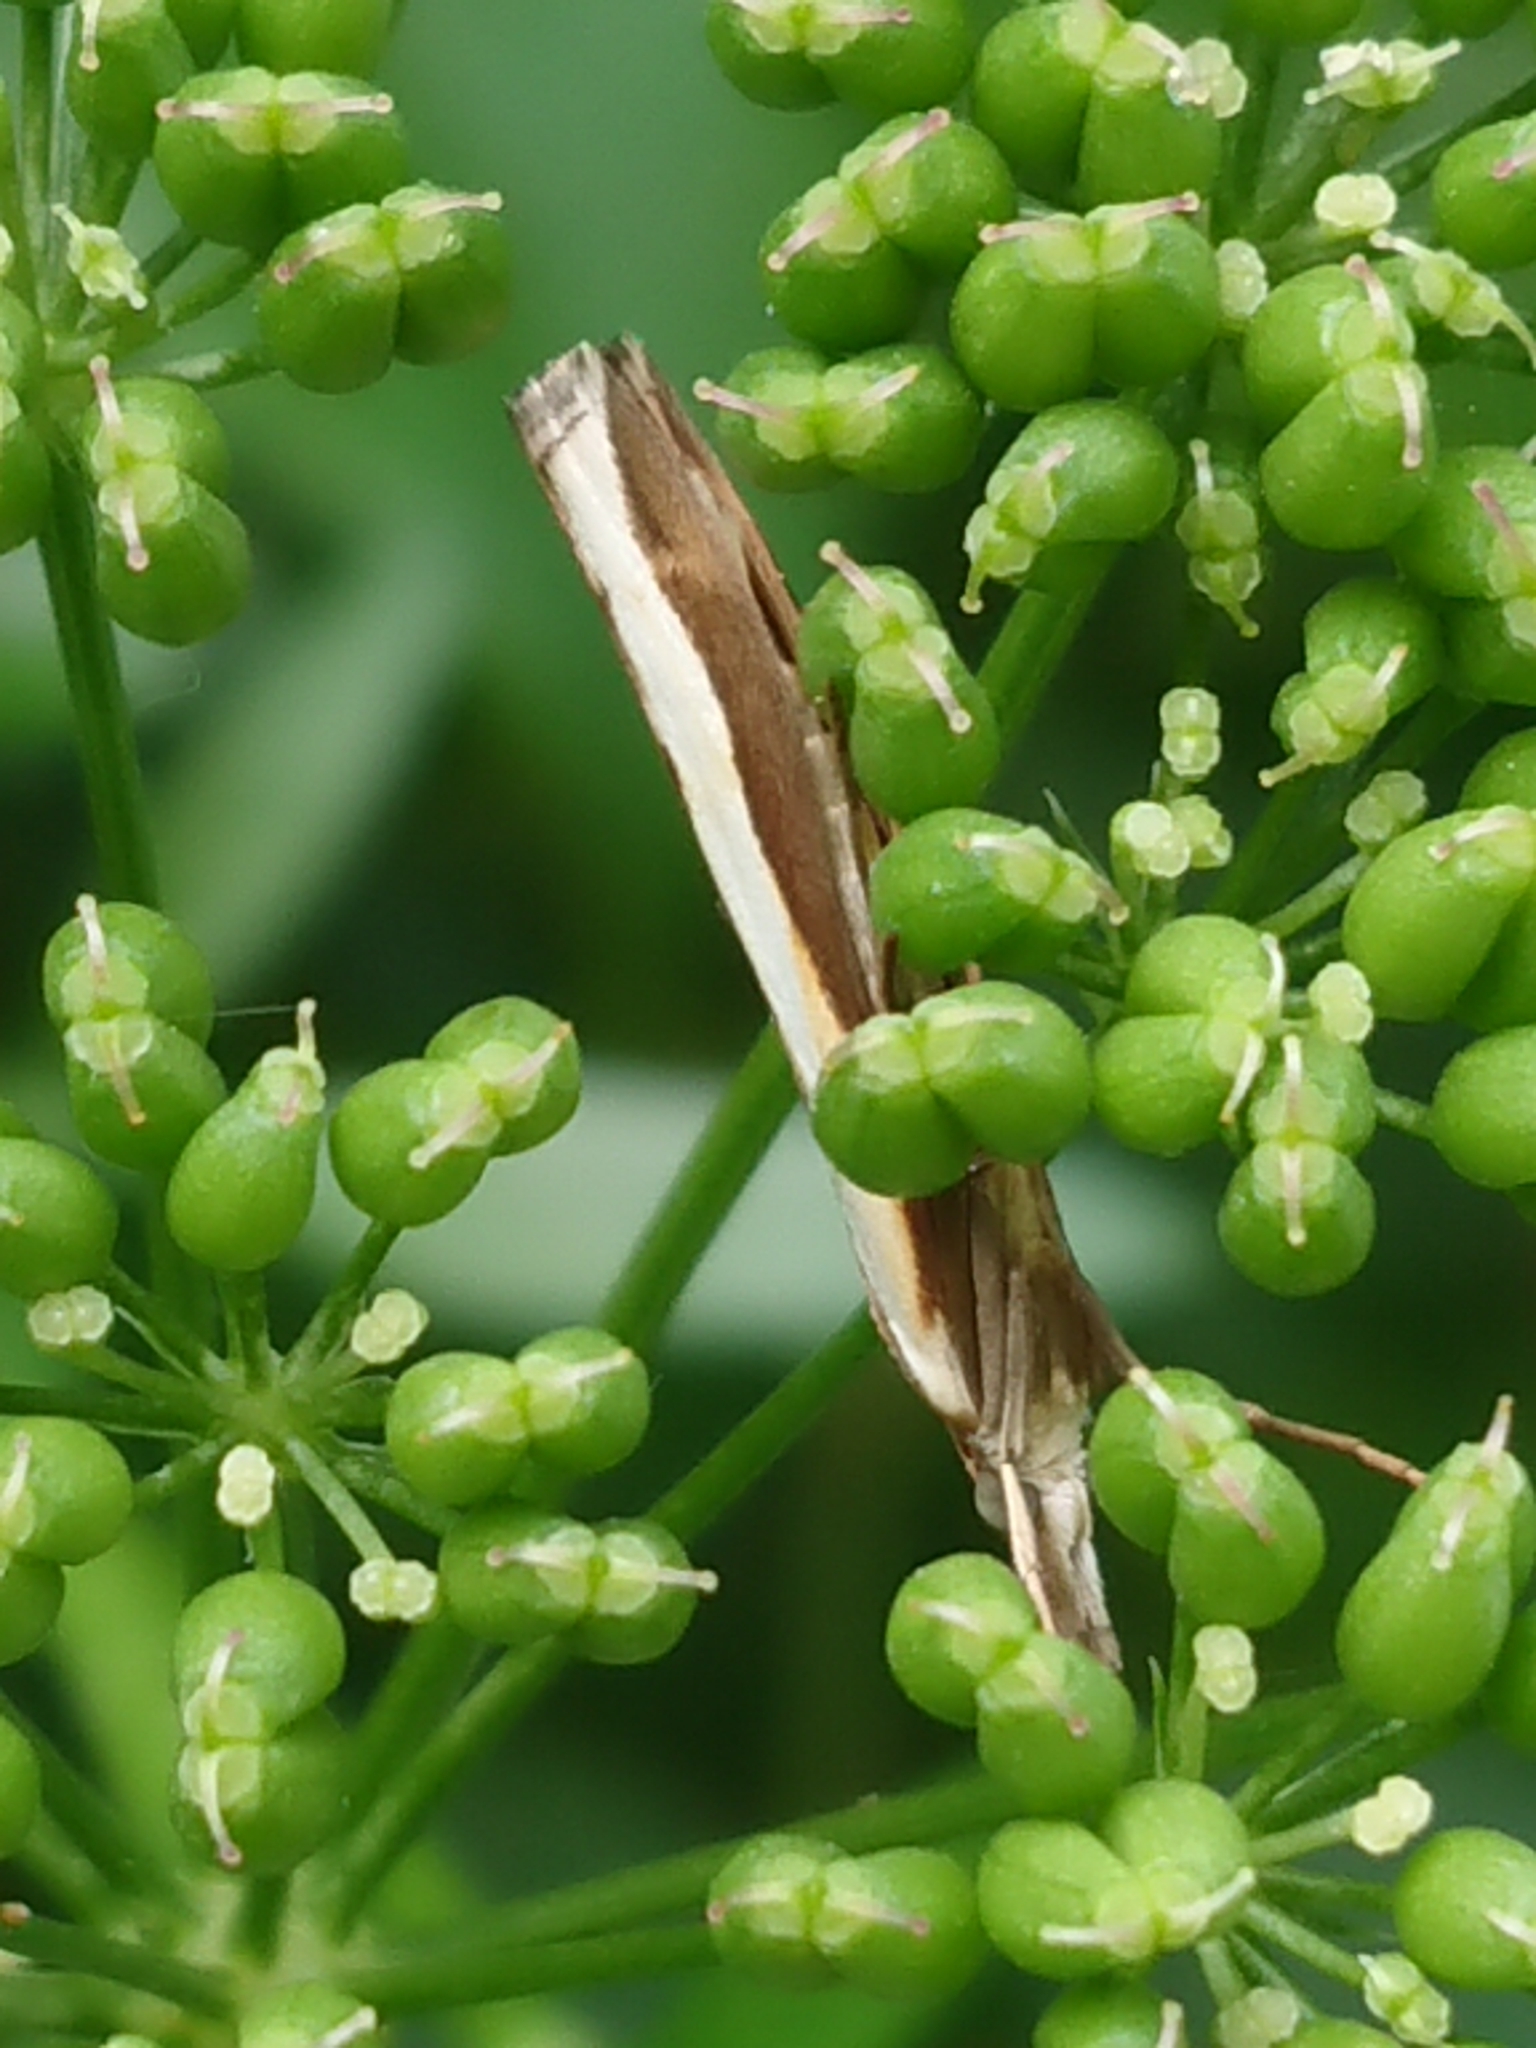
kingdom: Animalia
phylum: Arthropoda
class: Insecta
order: Lepidoptera
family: Crambidae
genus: Orocrambus
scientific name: Orocrambus flexuosellus
